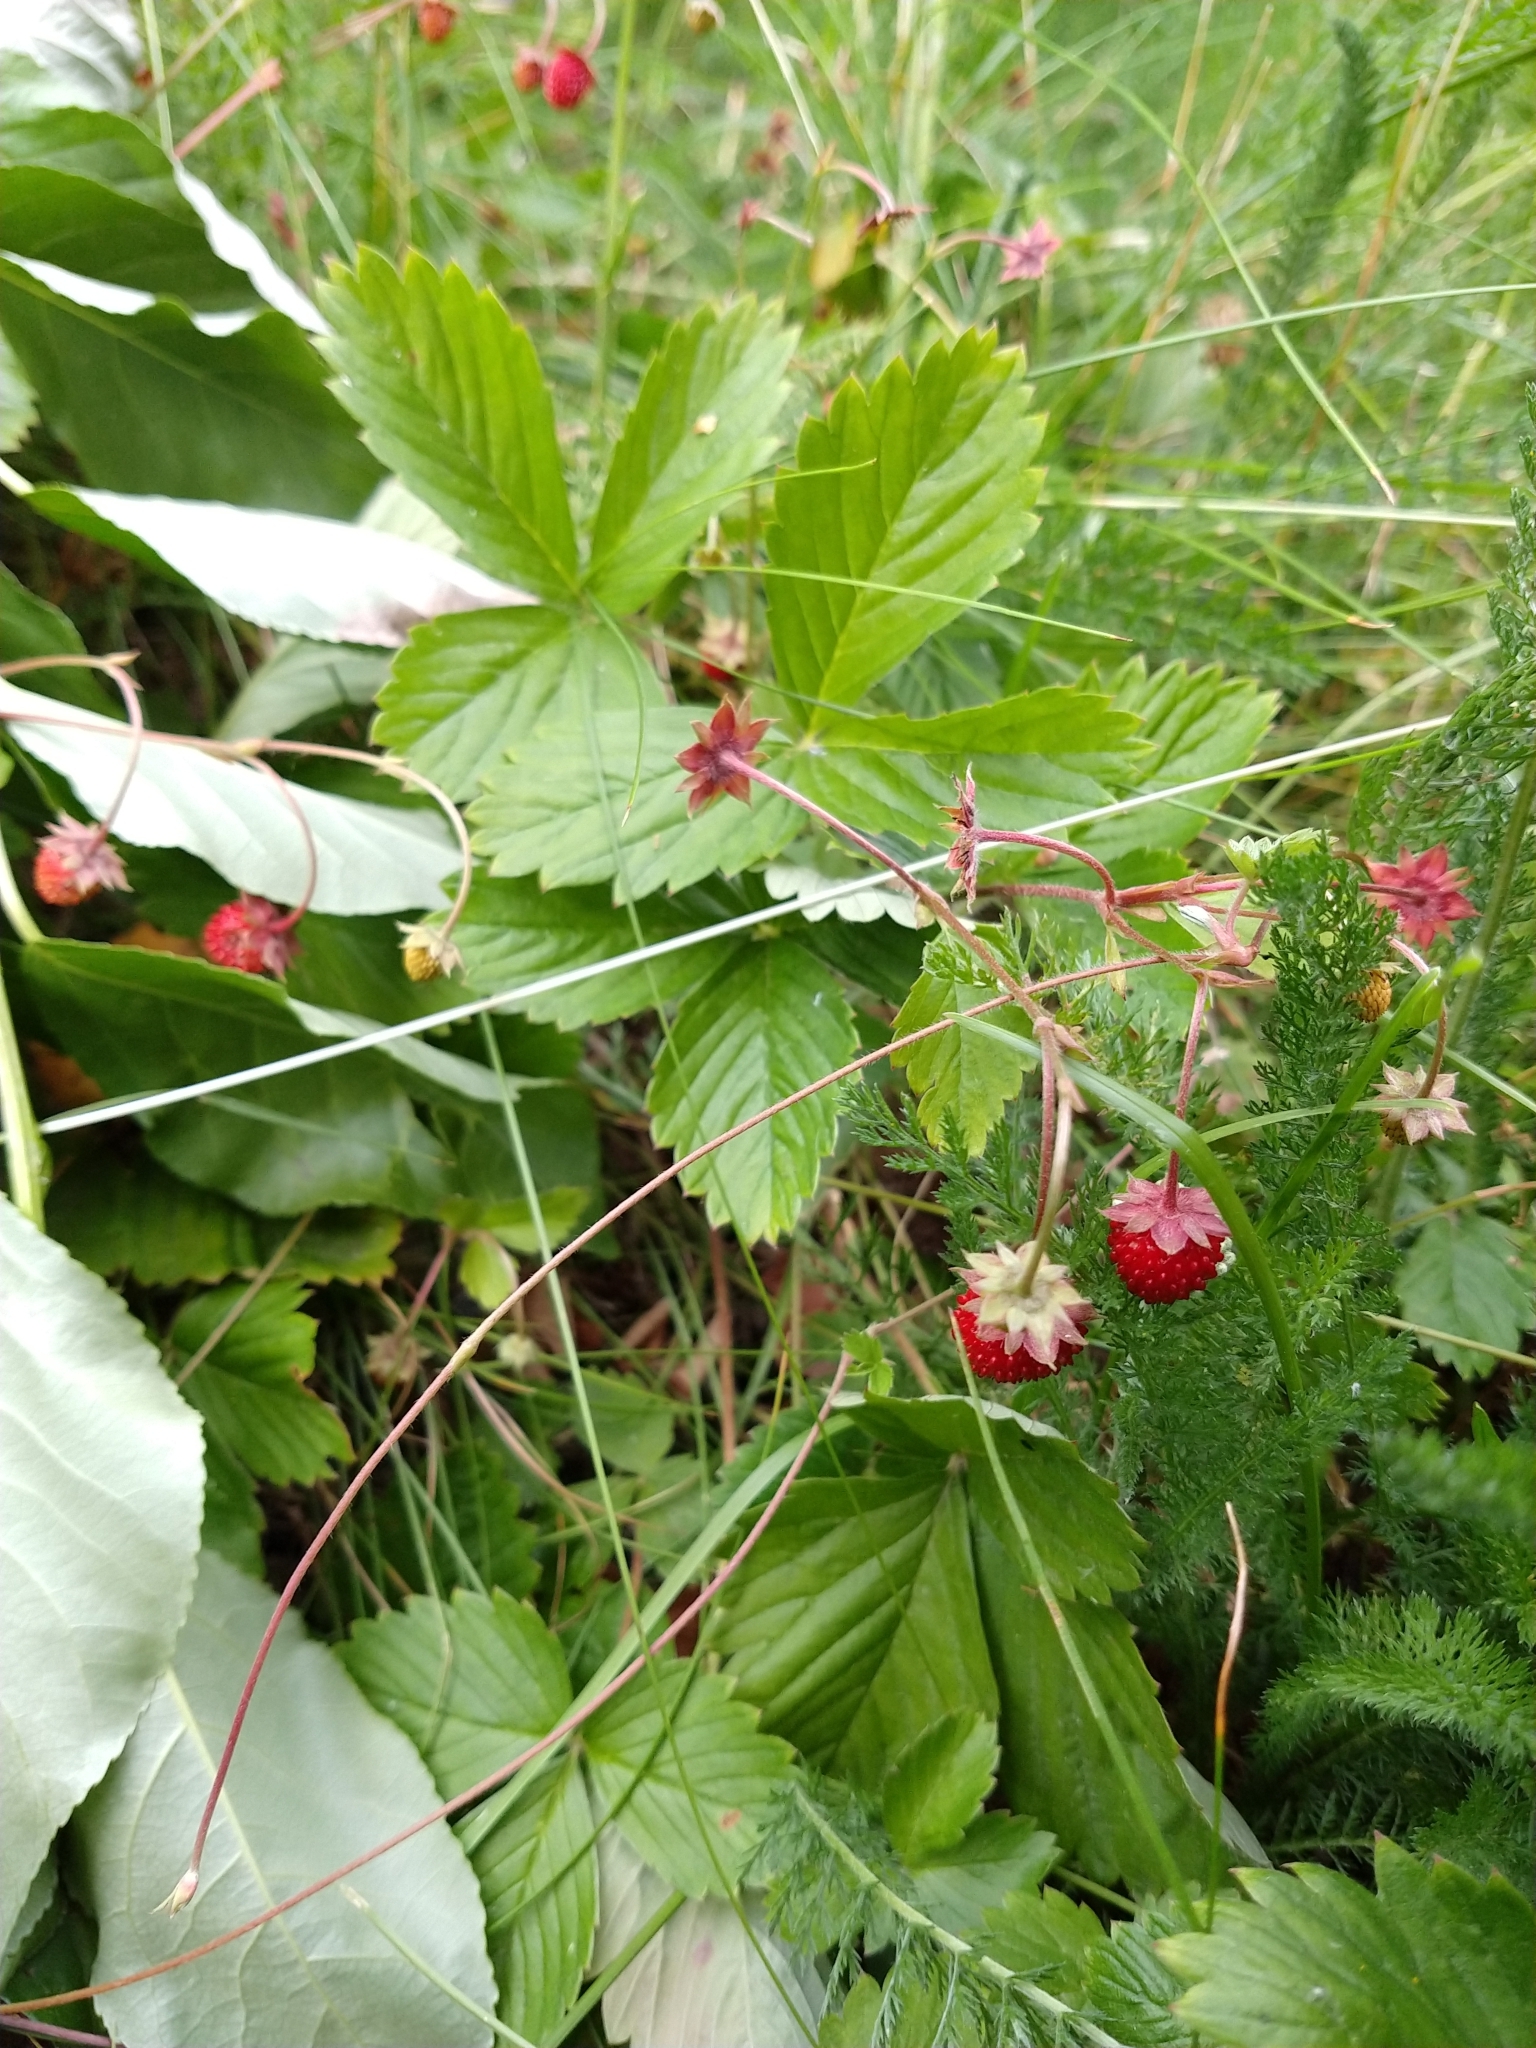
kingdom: Plantae
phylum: Tracheophyta
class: Magnoliopsida
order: Rosales
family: Rosaceae
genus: Fragaria
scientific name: Fragaria vesca
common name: Wild strawberry
